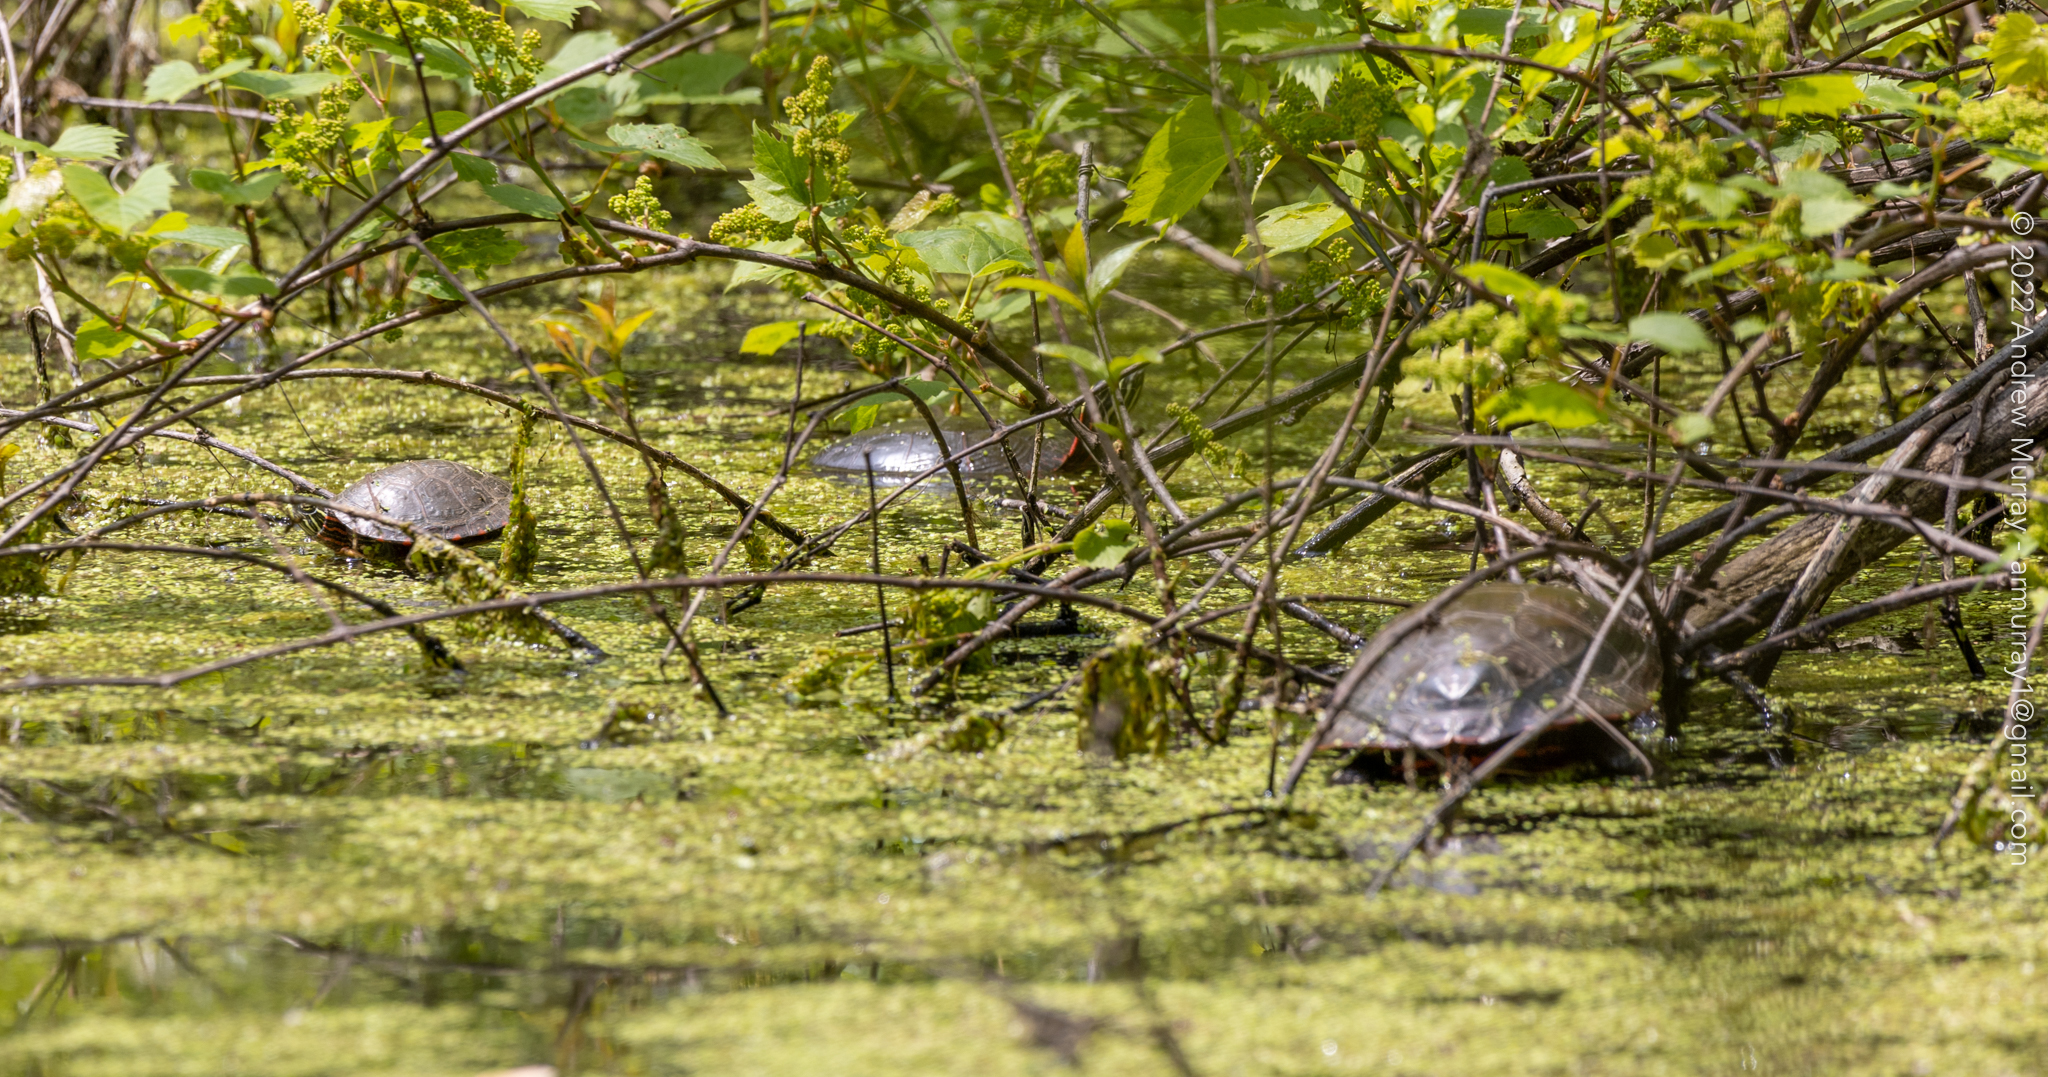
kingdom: Animalia
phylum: Chordata
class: Testudines
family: Emydidae
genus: Chrysemys
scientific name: Chrysemys picta
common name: Painted turtle
